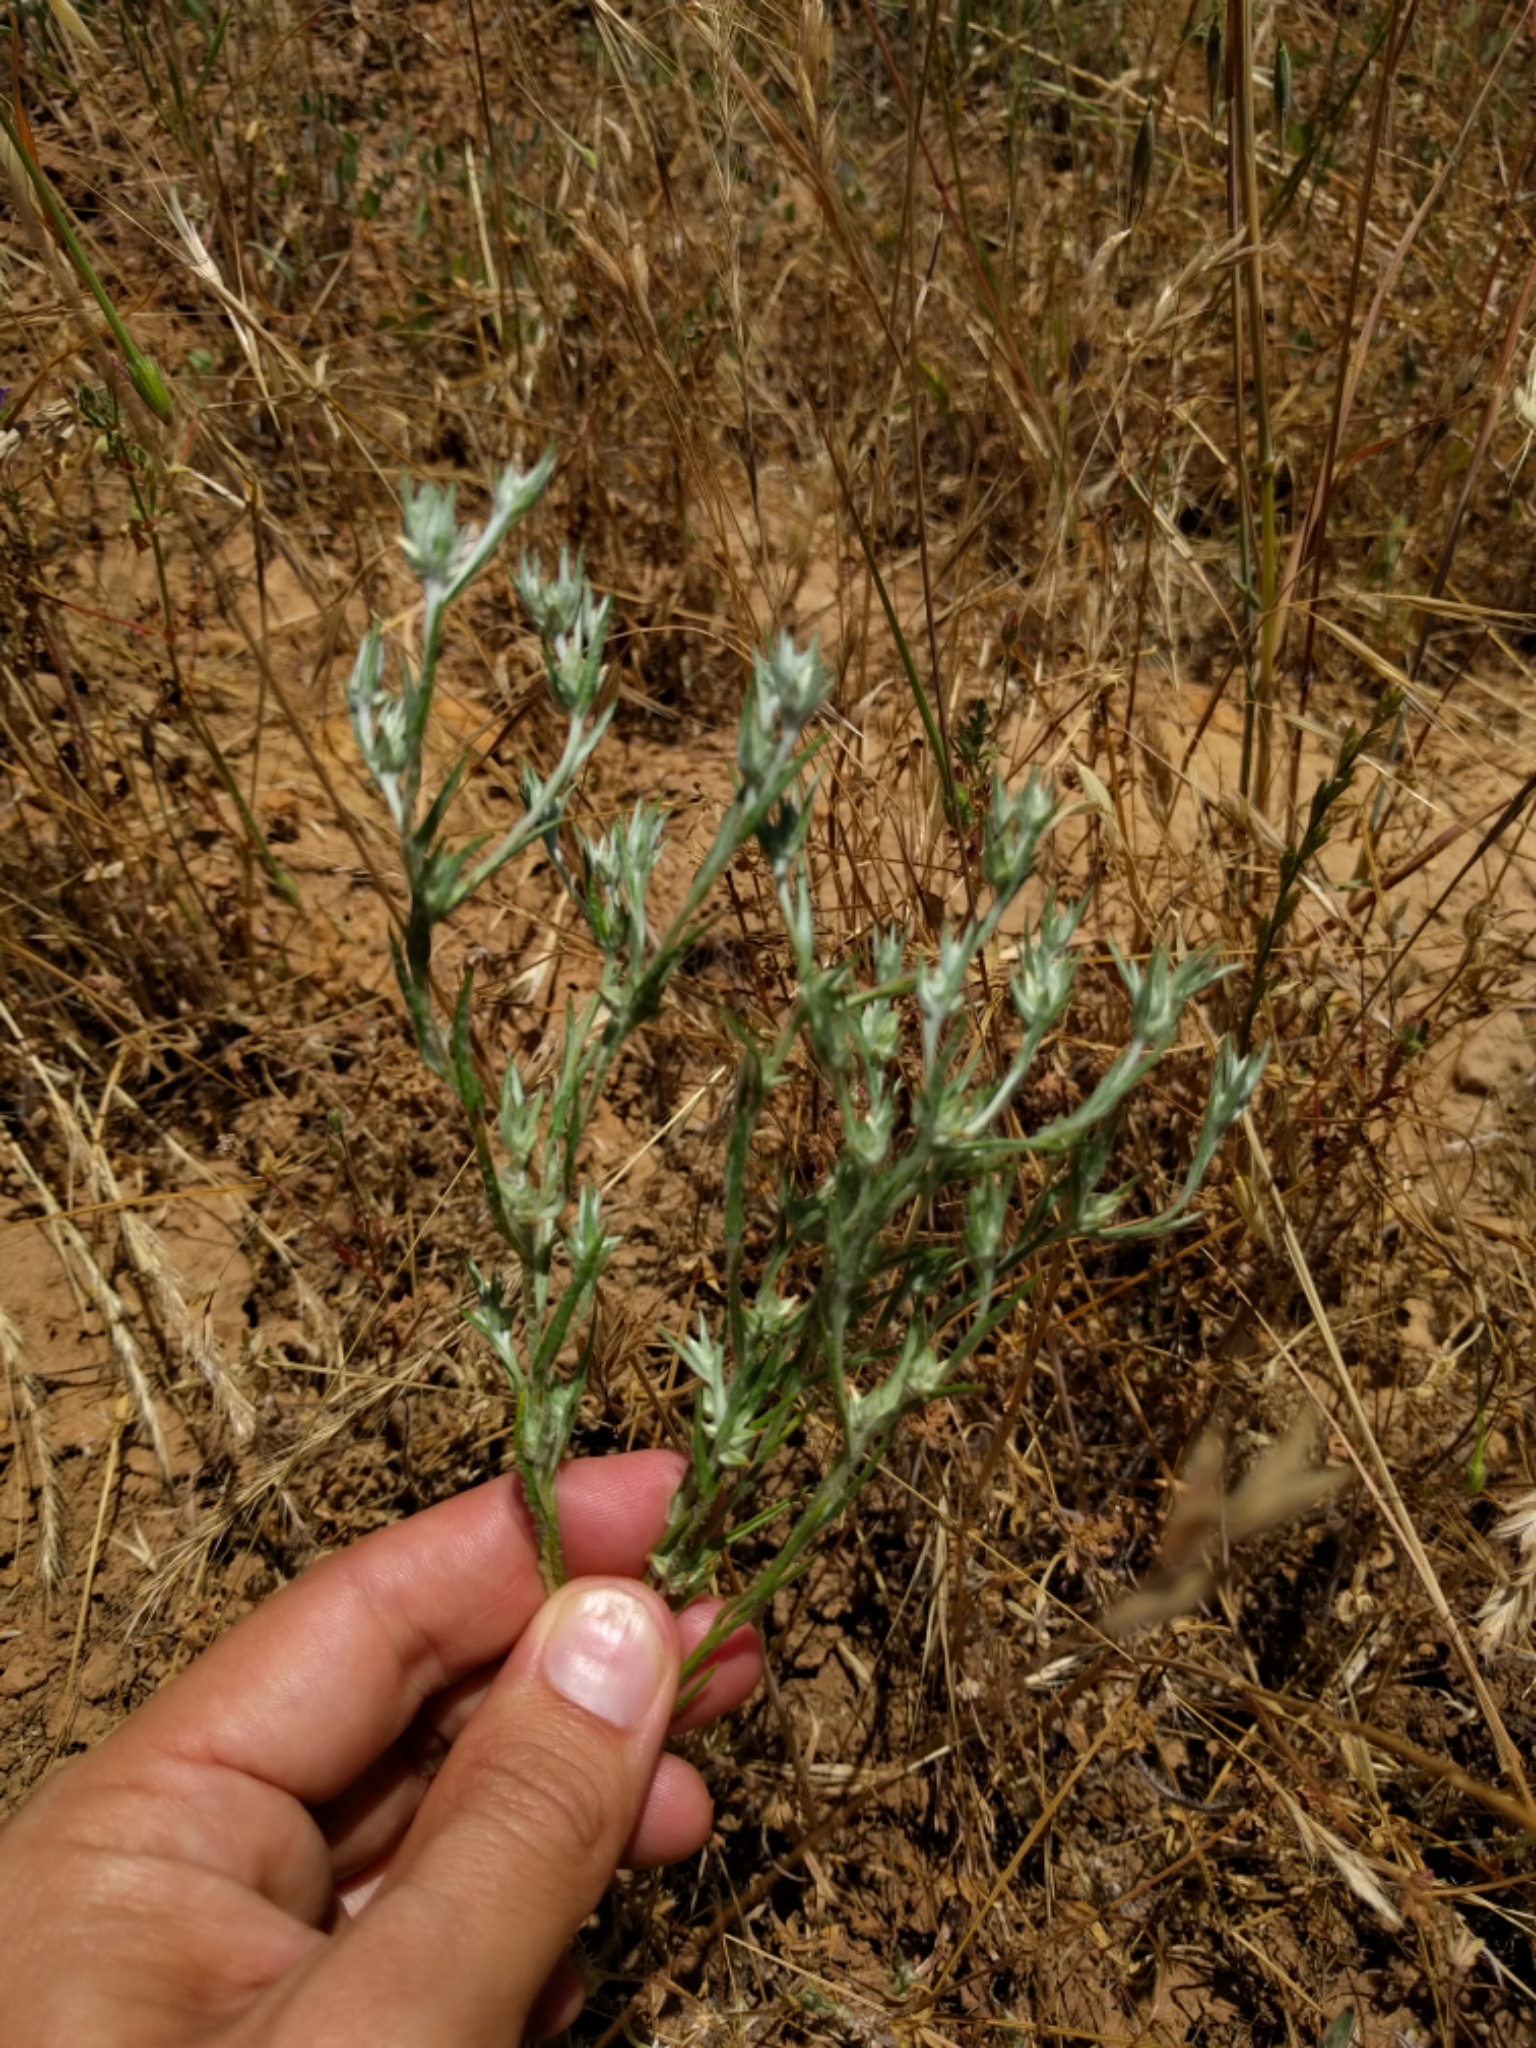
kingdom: Plantae
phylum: Tracheophyta
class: Magnoliopsida
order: Asterales
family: Asteraceae
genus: Logfia
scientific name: Logfia gallica
